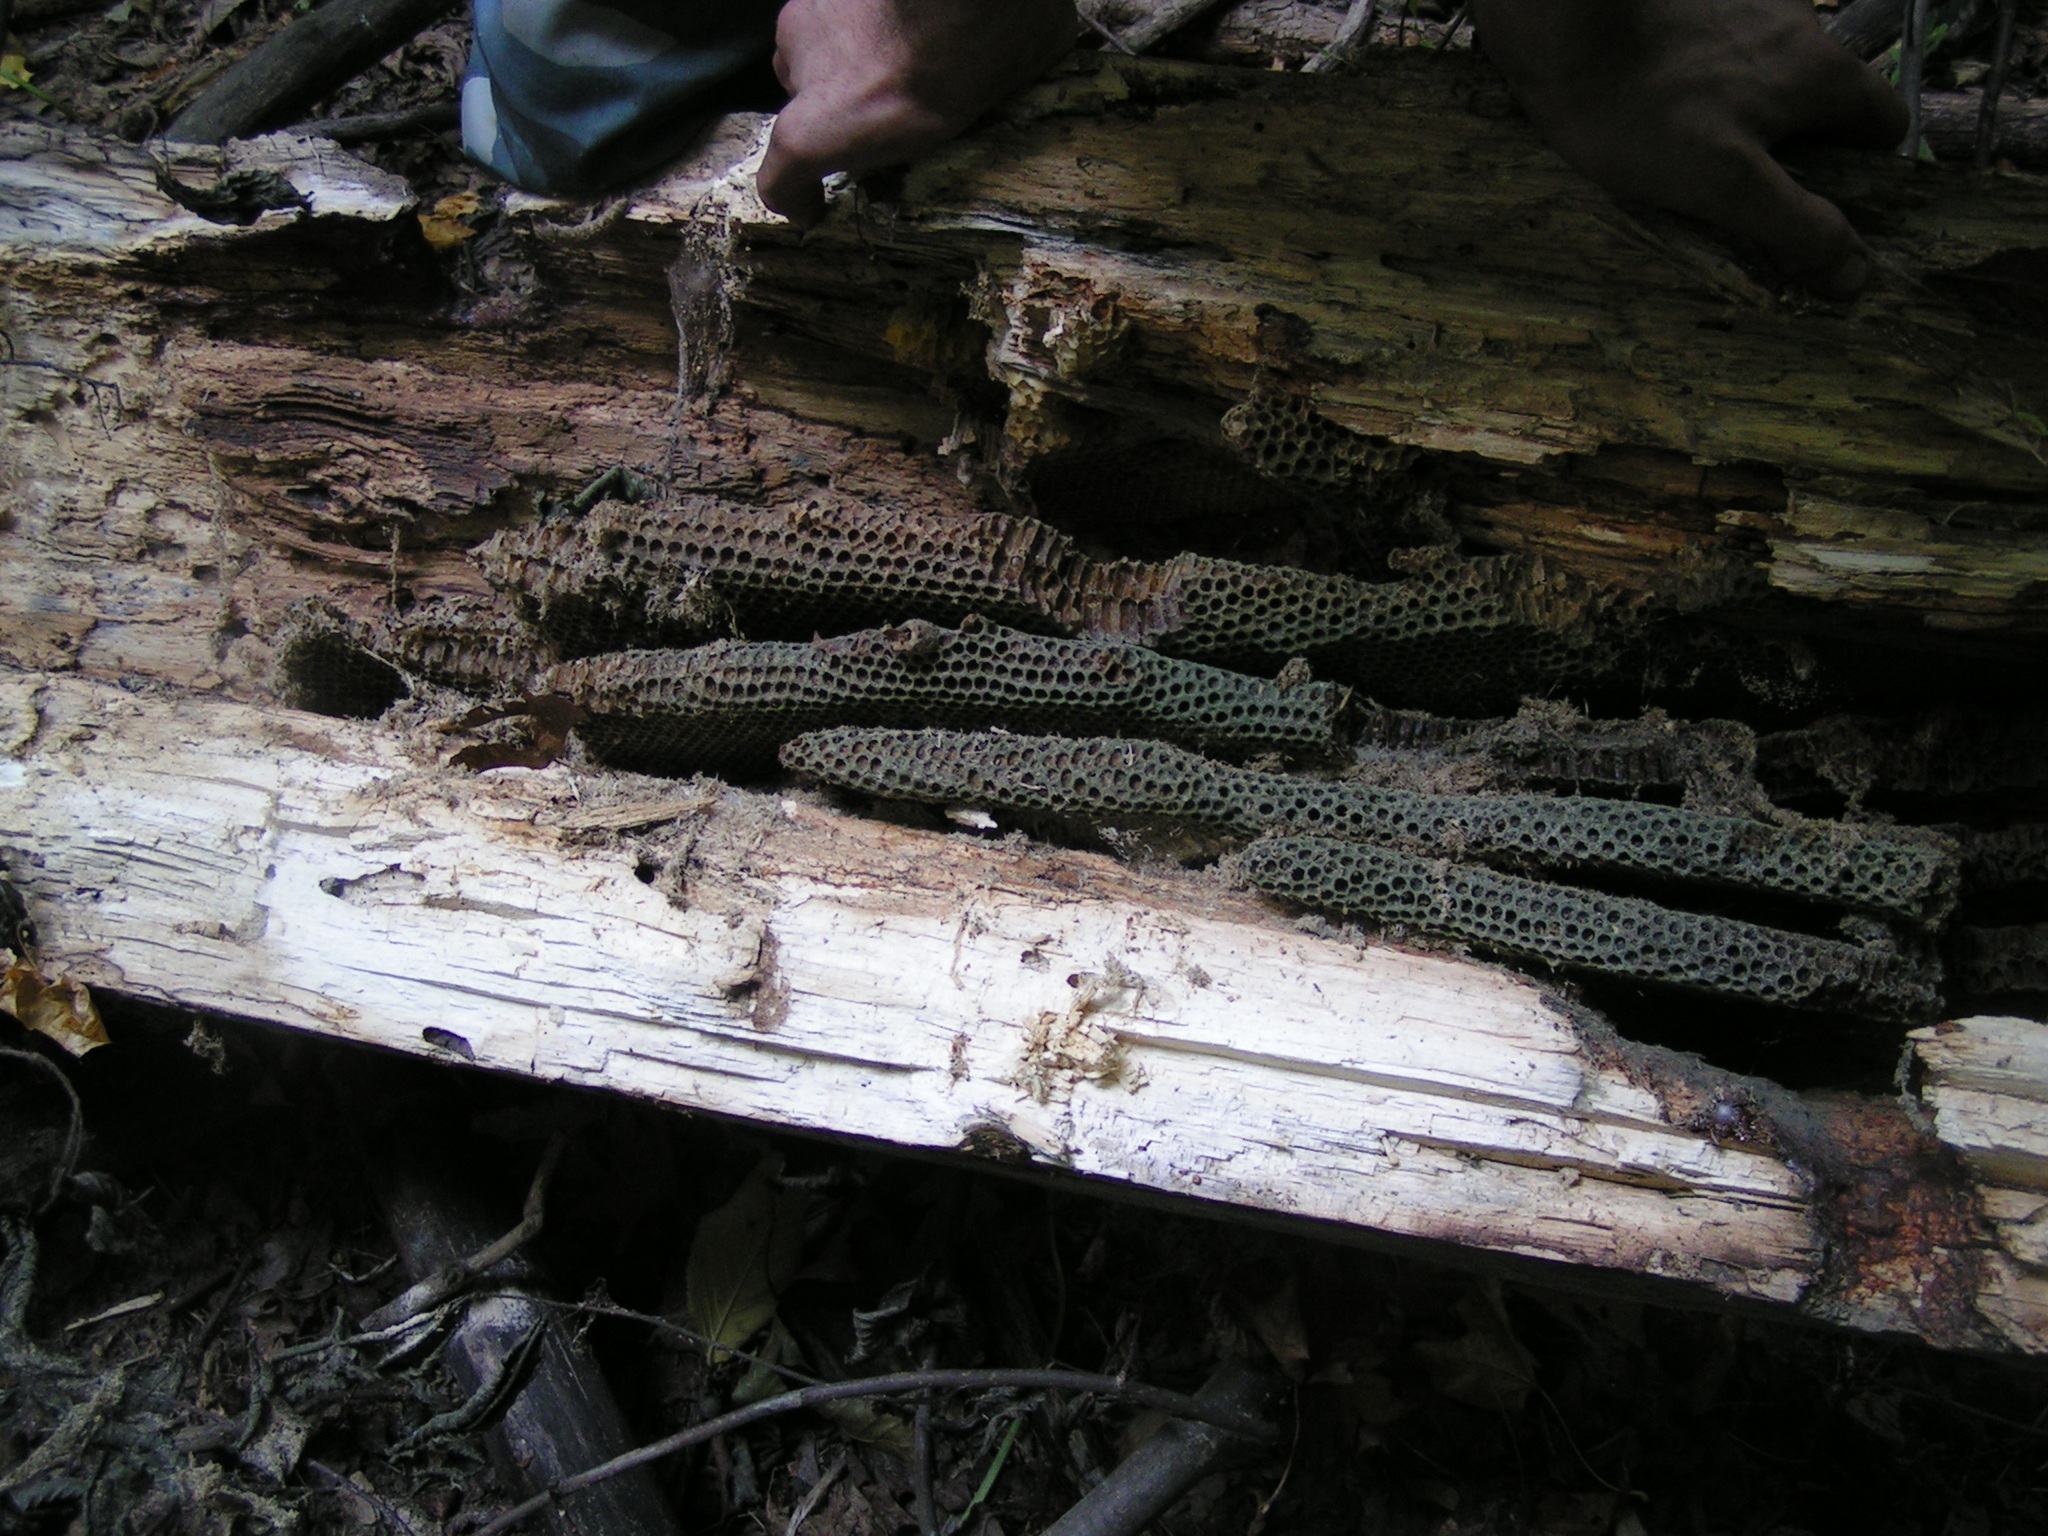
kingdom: Animalia
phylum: Arthropoda
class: Insecta
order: Hymenoptera
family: Apidae
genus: Apis
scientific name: Apis mellifera
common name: Honey bee
